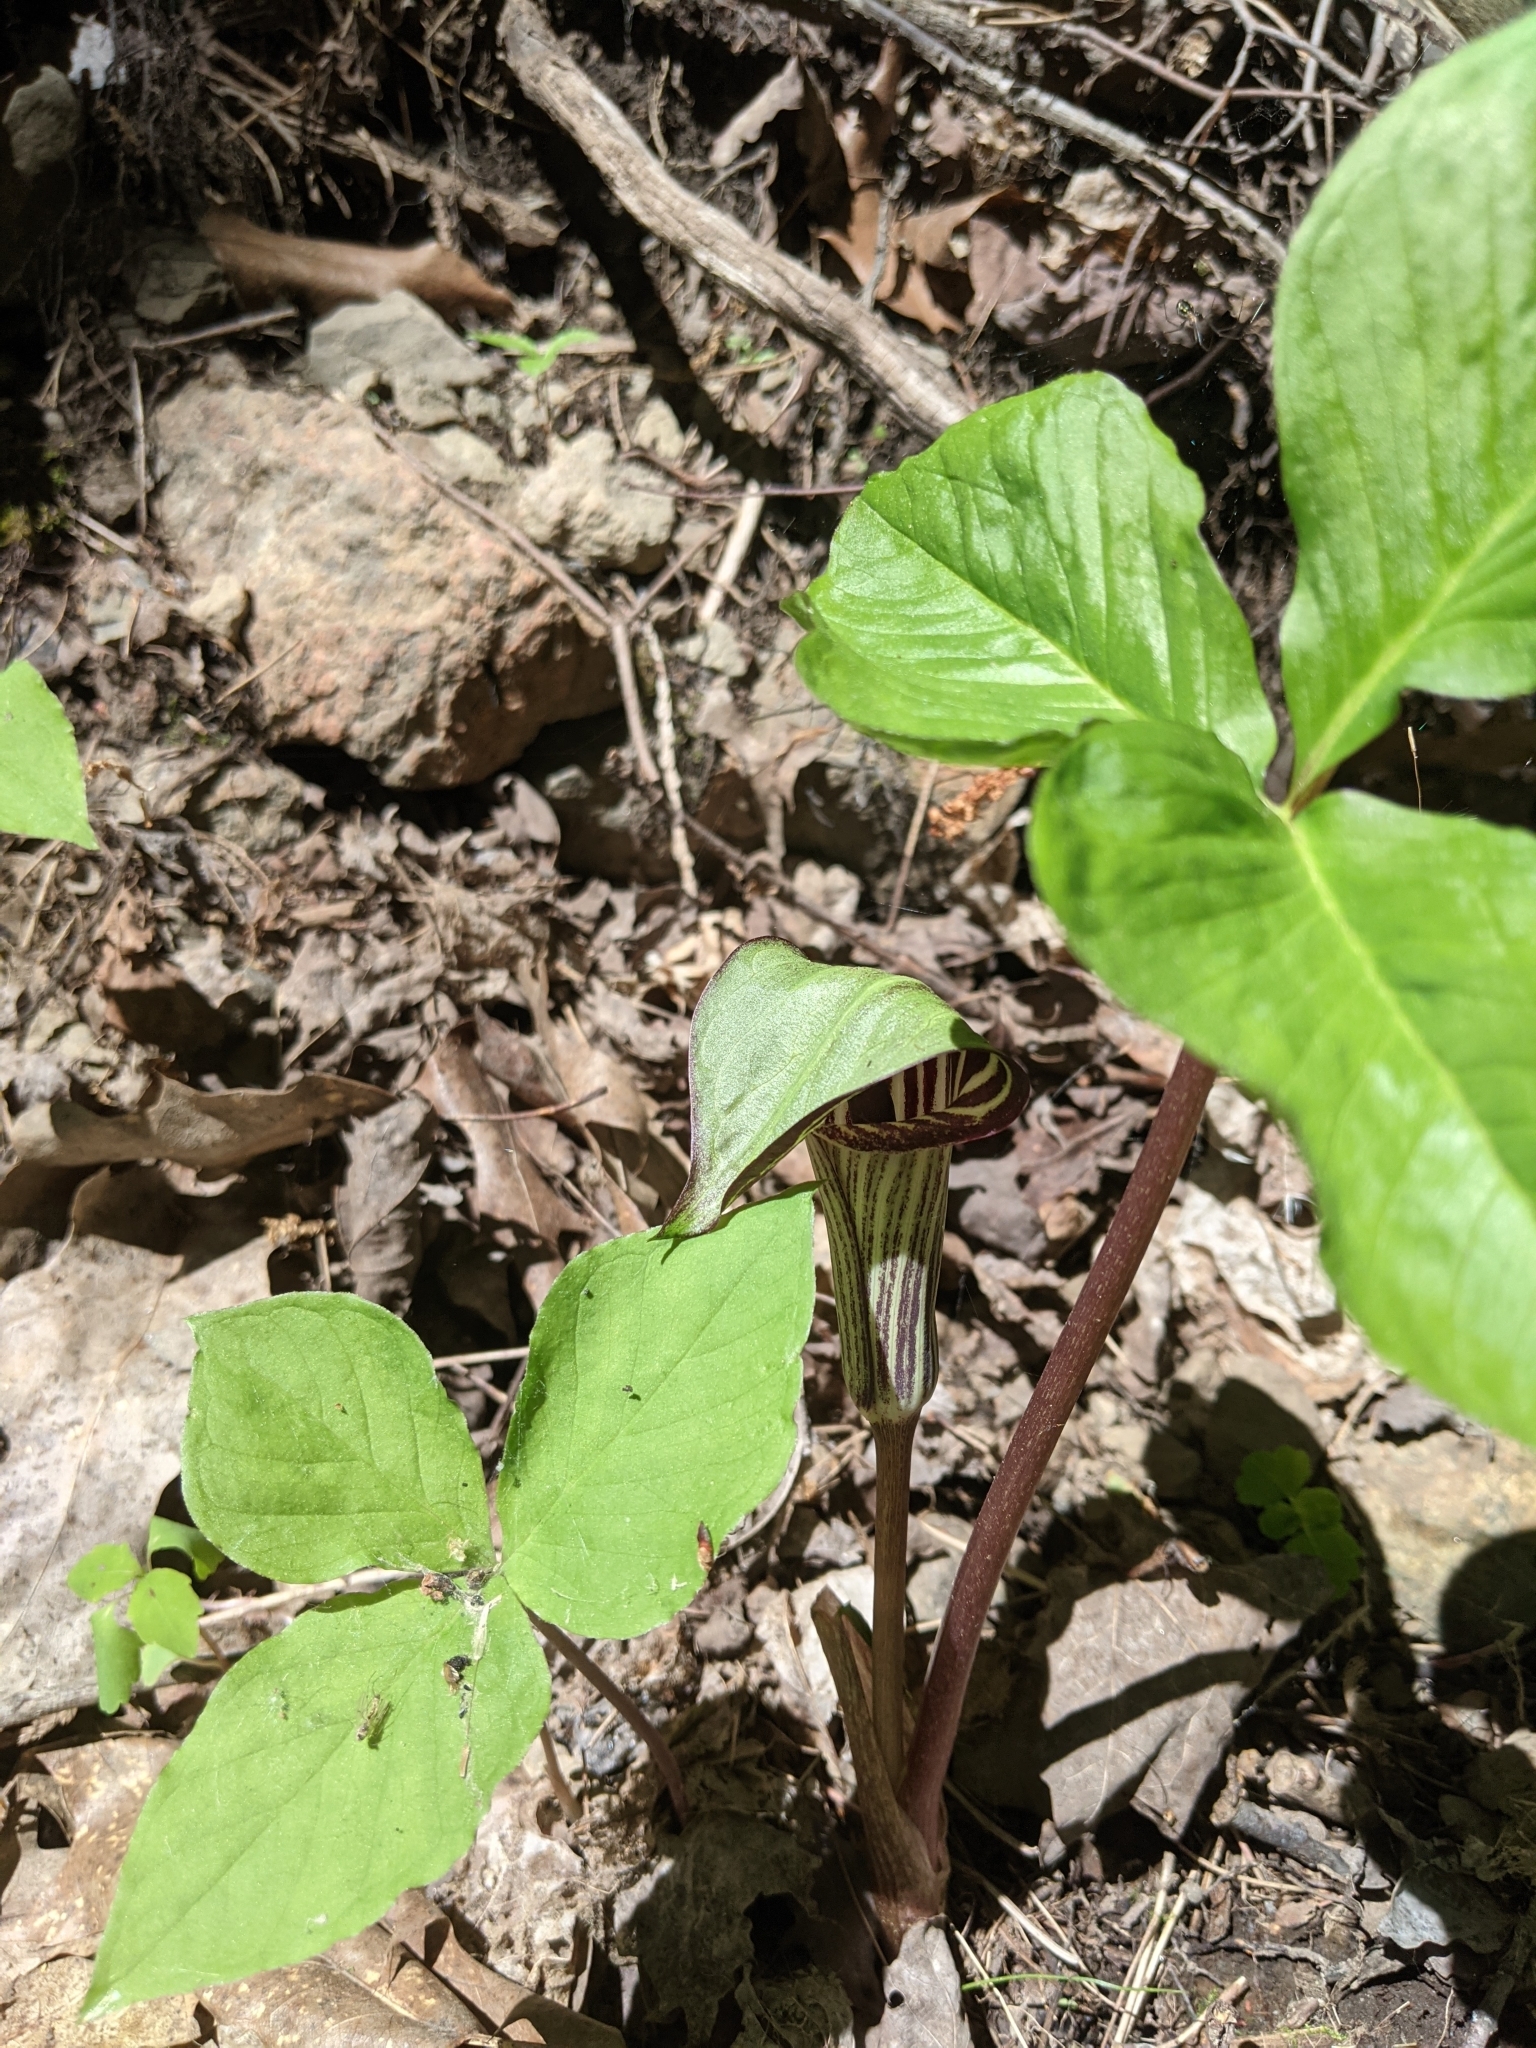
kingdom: Plantae
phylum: Tracheophyta
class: Liliopsida
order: Alismatales
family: Araceae
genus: Arisaema
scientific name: Arisaema triphyllum
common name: Jack-in-the-pulpit
